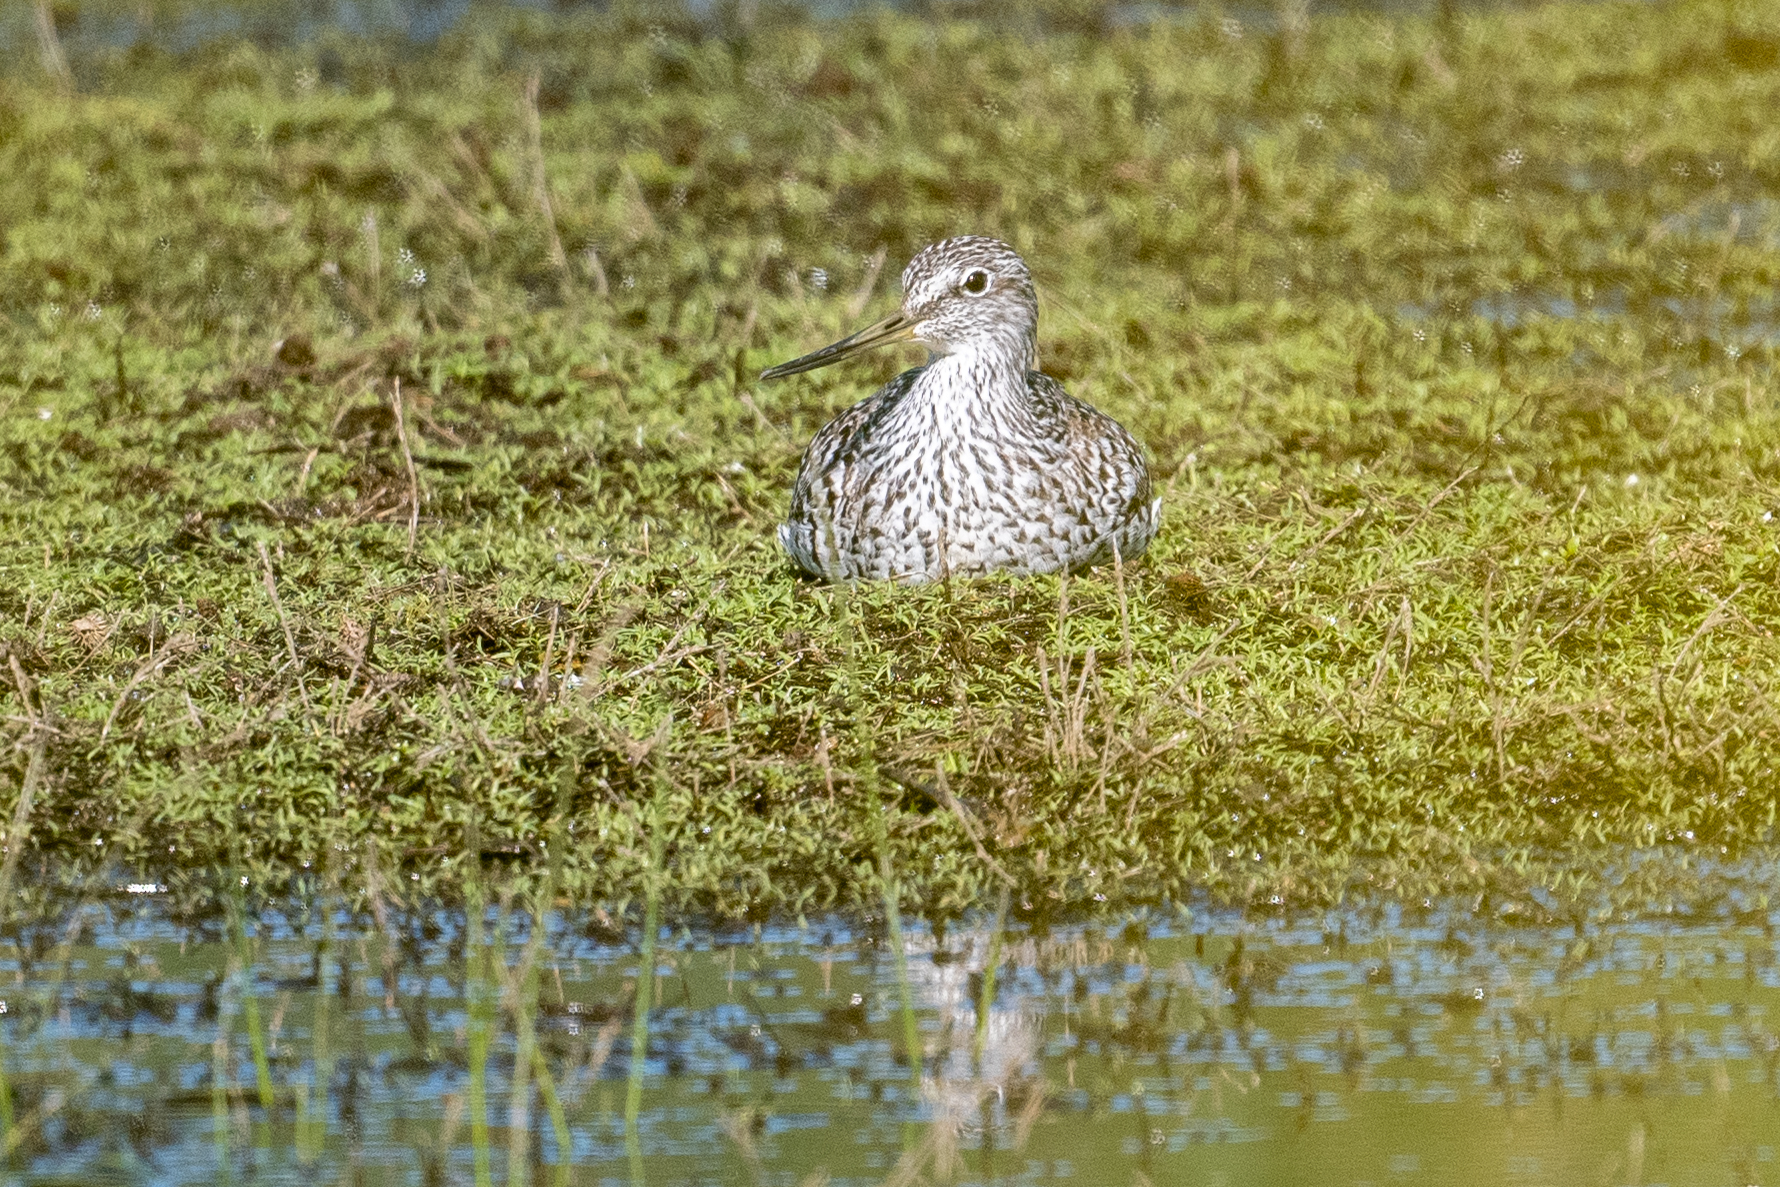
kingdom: Animalia
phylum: Chordata
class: Aves
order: Charadriiformes
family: Scolopacidae
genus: Tringa
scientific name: Tringa melanoleuca
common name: Greater yellowlegs
